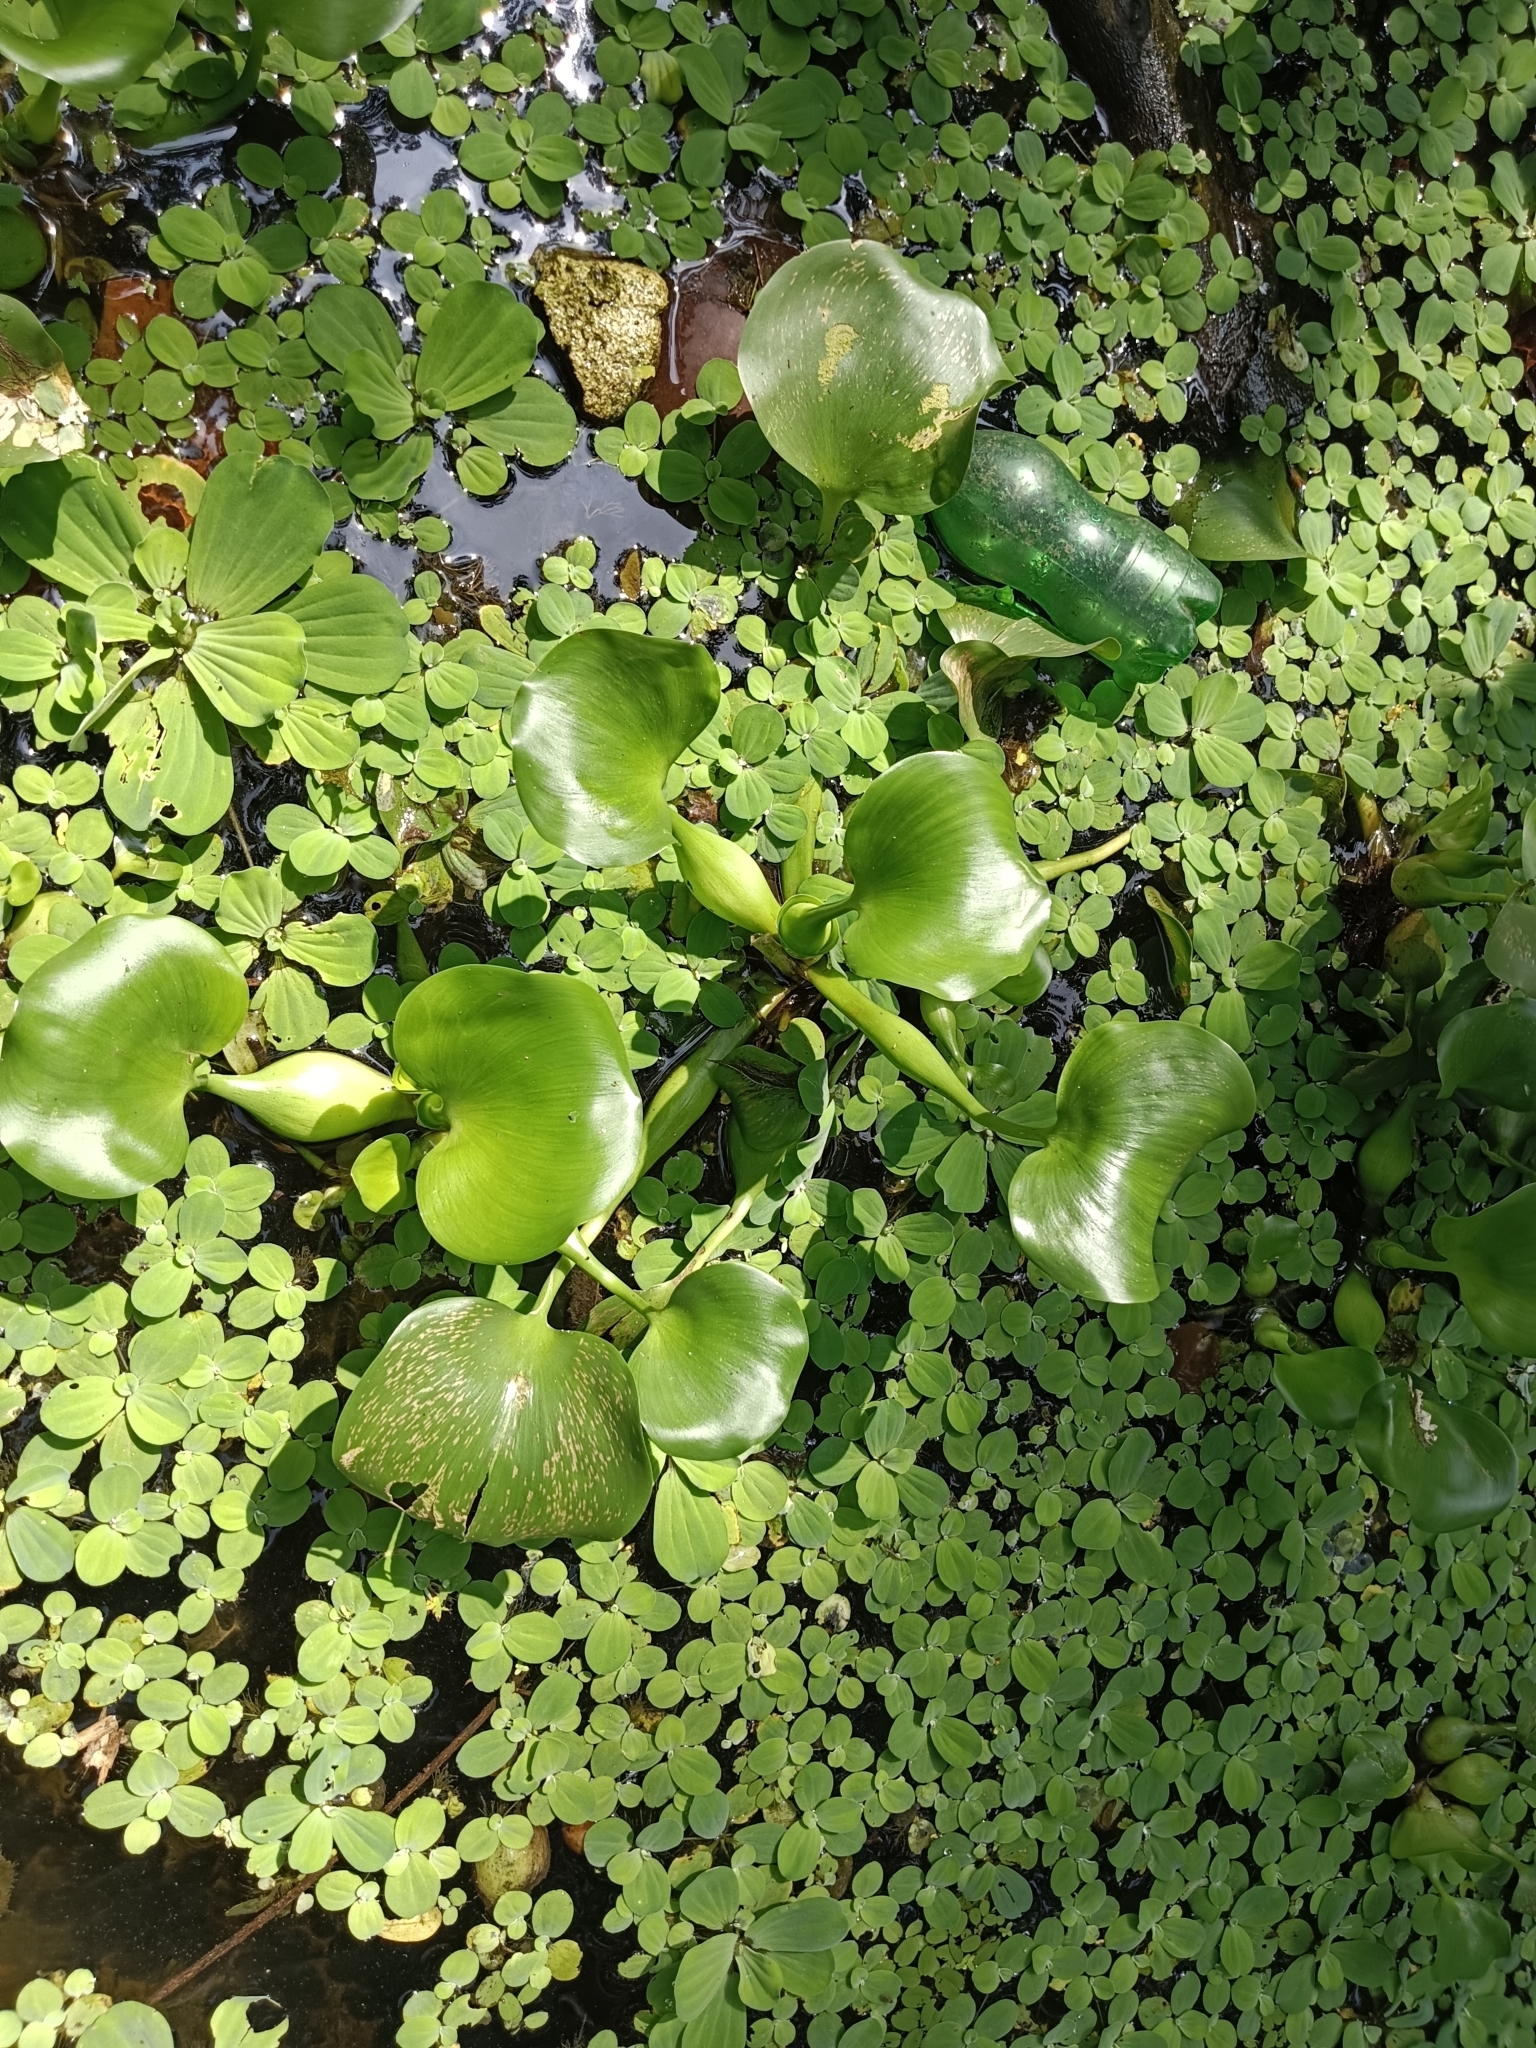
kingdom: Plantae
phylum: Tracheophyta
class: Liliopsida
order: Commelinales
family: Pontederiaceae
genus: Pontederia
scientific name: Pontederia crassipes
